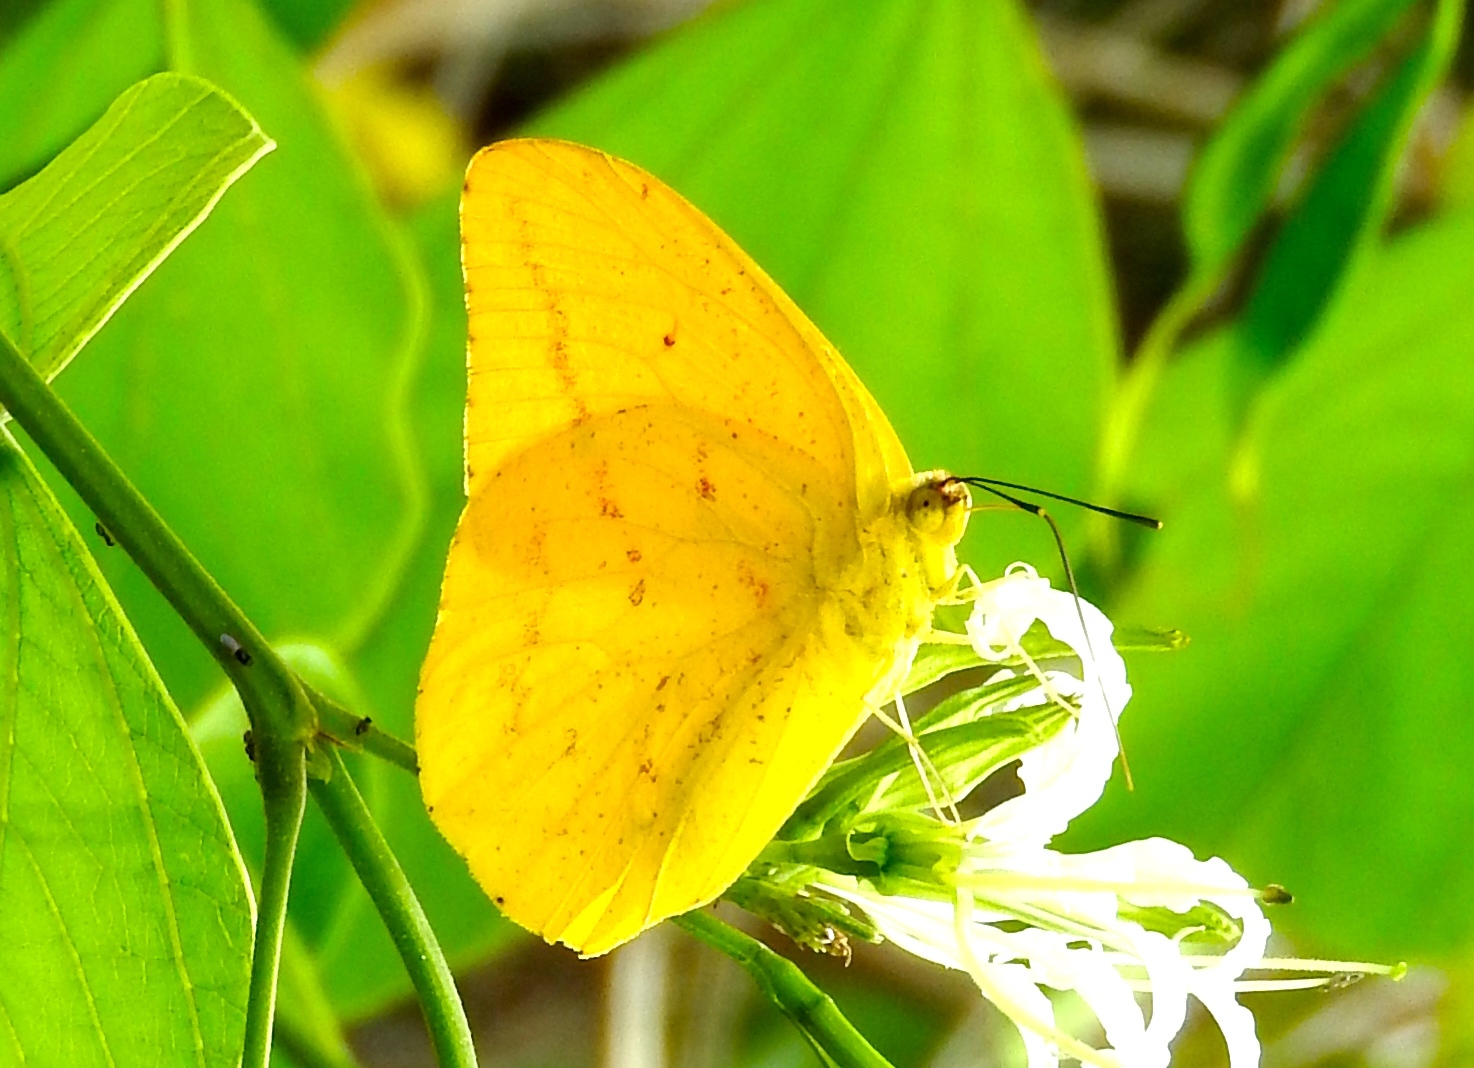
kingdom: Animalia
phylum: Arthropoda
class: Insecta
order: Lepidoptera
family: Pieridae
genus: Phoebis
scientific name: Phoebis agarithe
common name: Large orange sulphur
